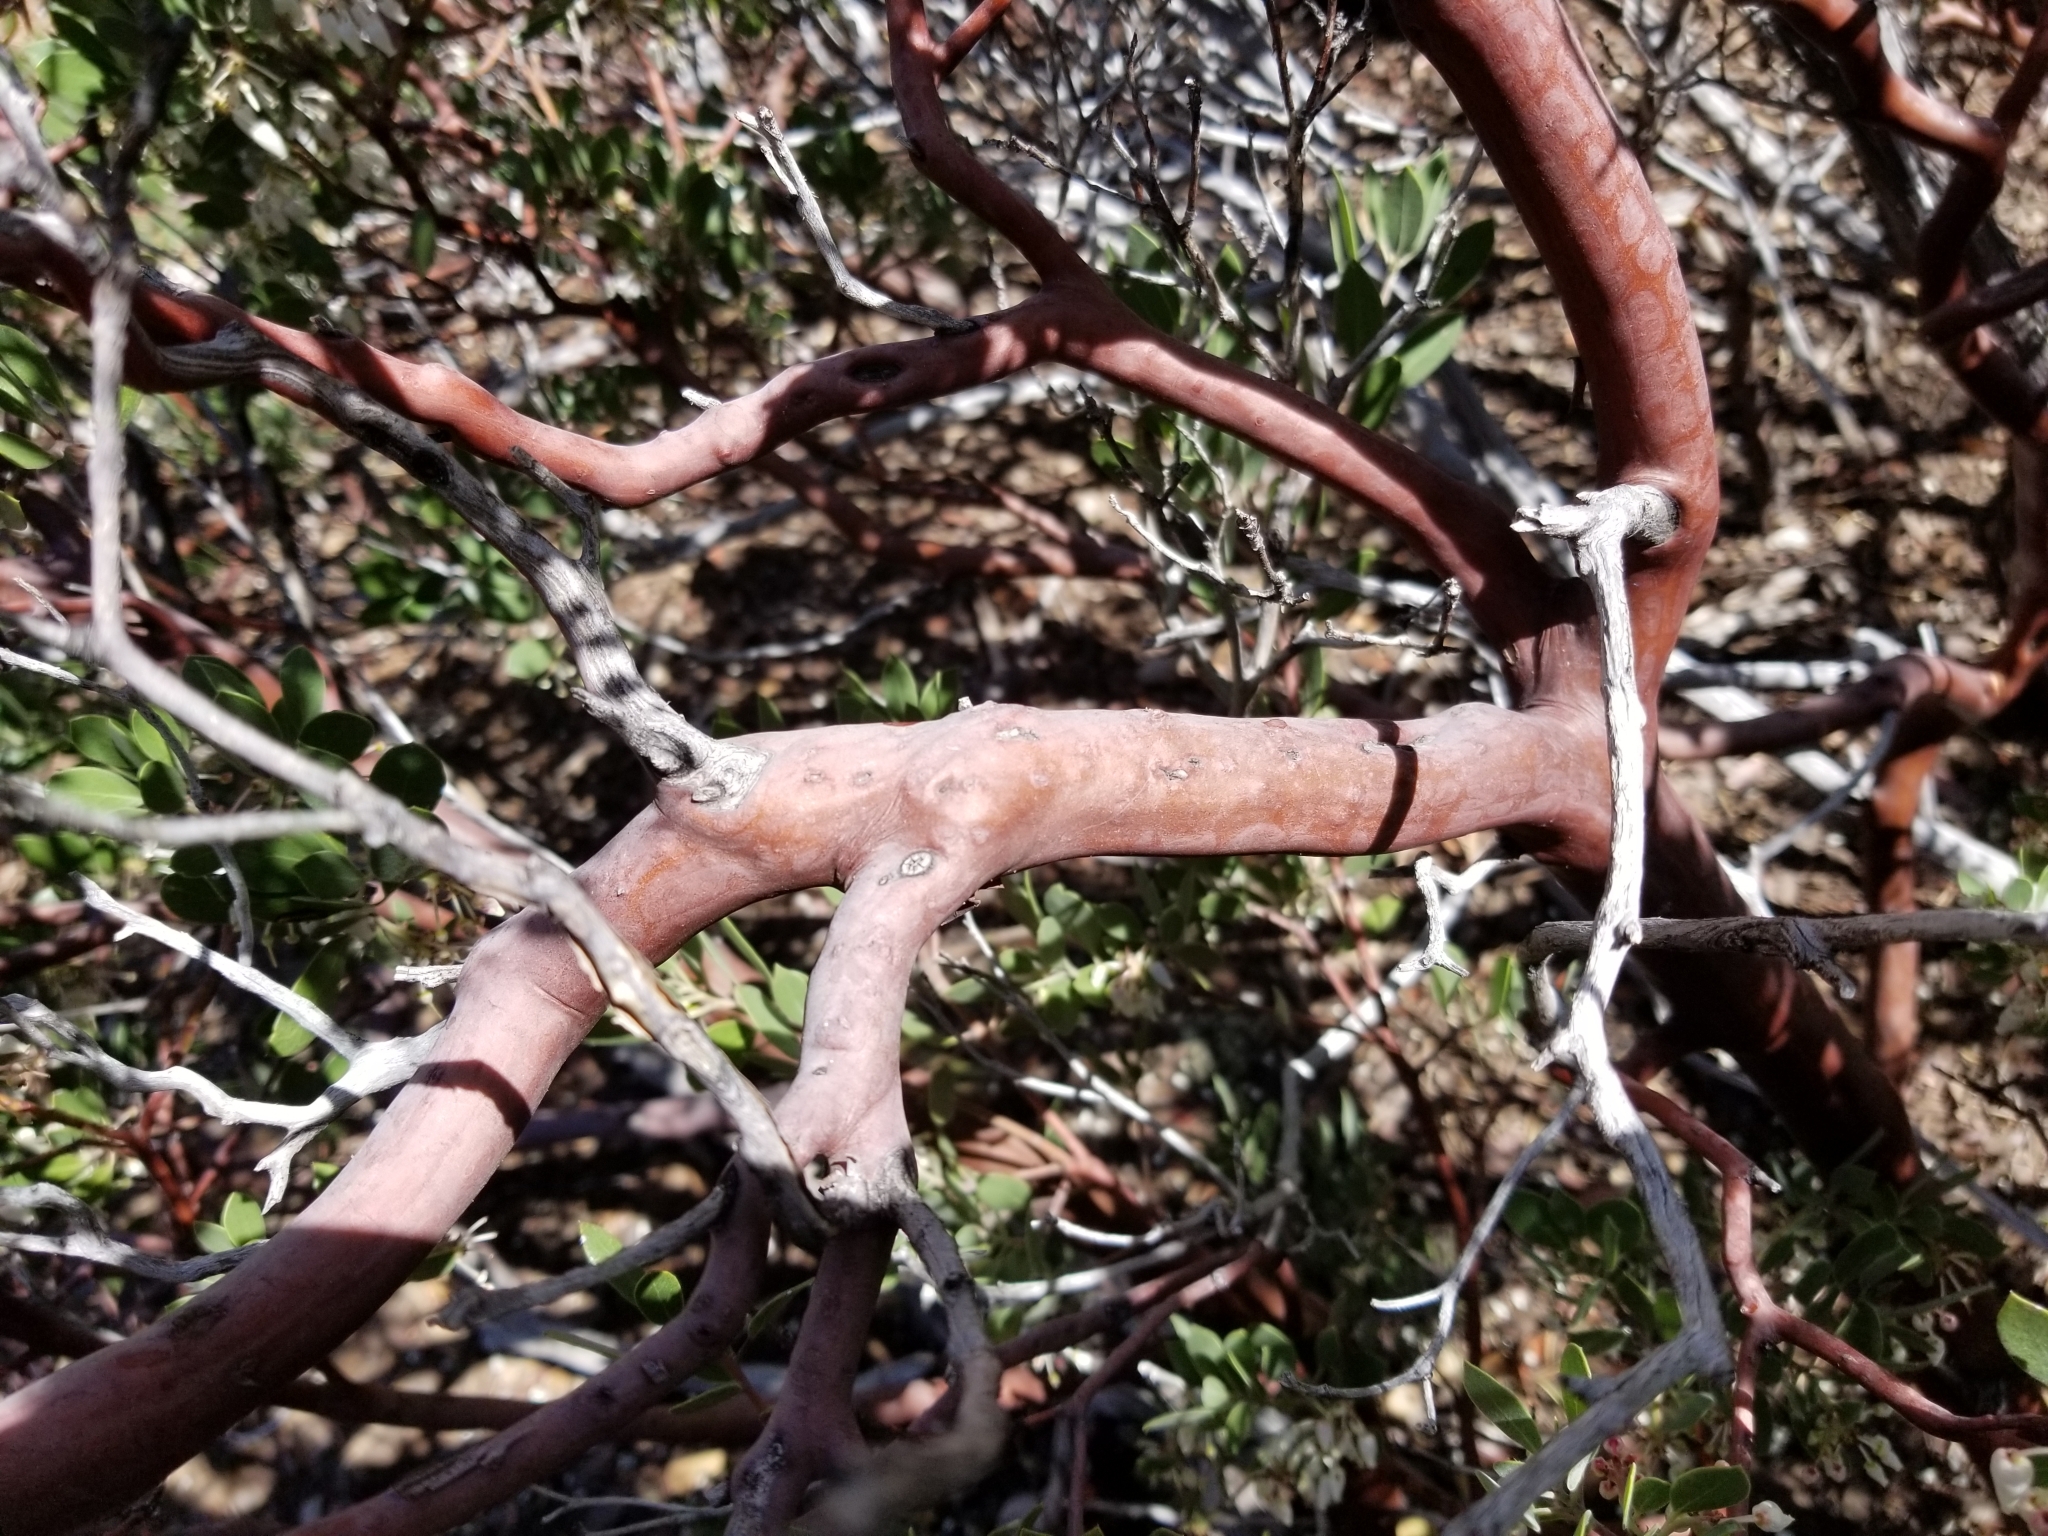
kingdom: Plantae
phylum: Tracheophyta
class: Magnoliopsida
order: Ericales
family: Ericaceae
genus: Arctostaphylos
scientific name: Arctostaphylos pungens
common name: Mexican manzanita
